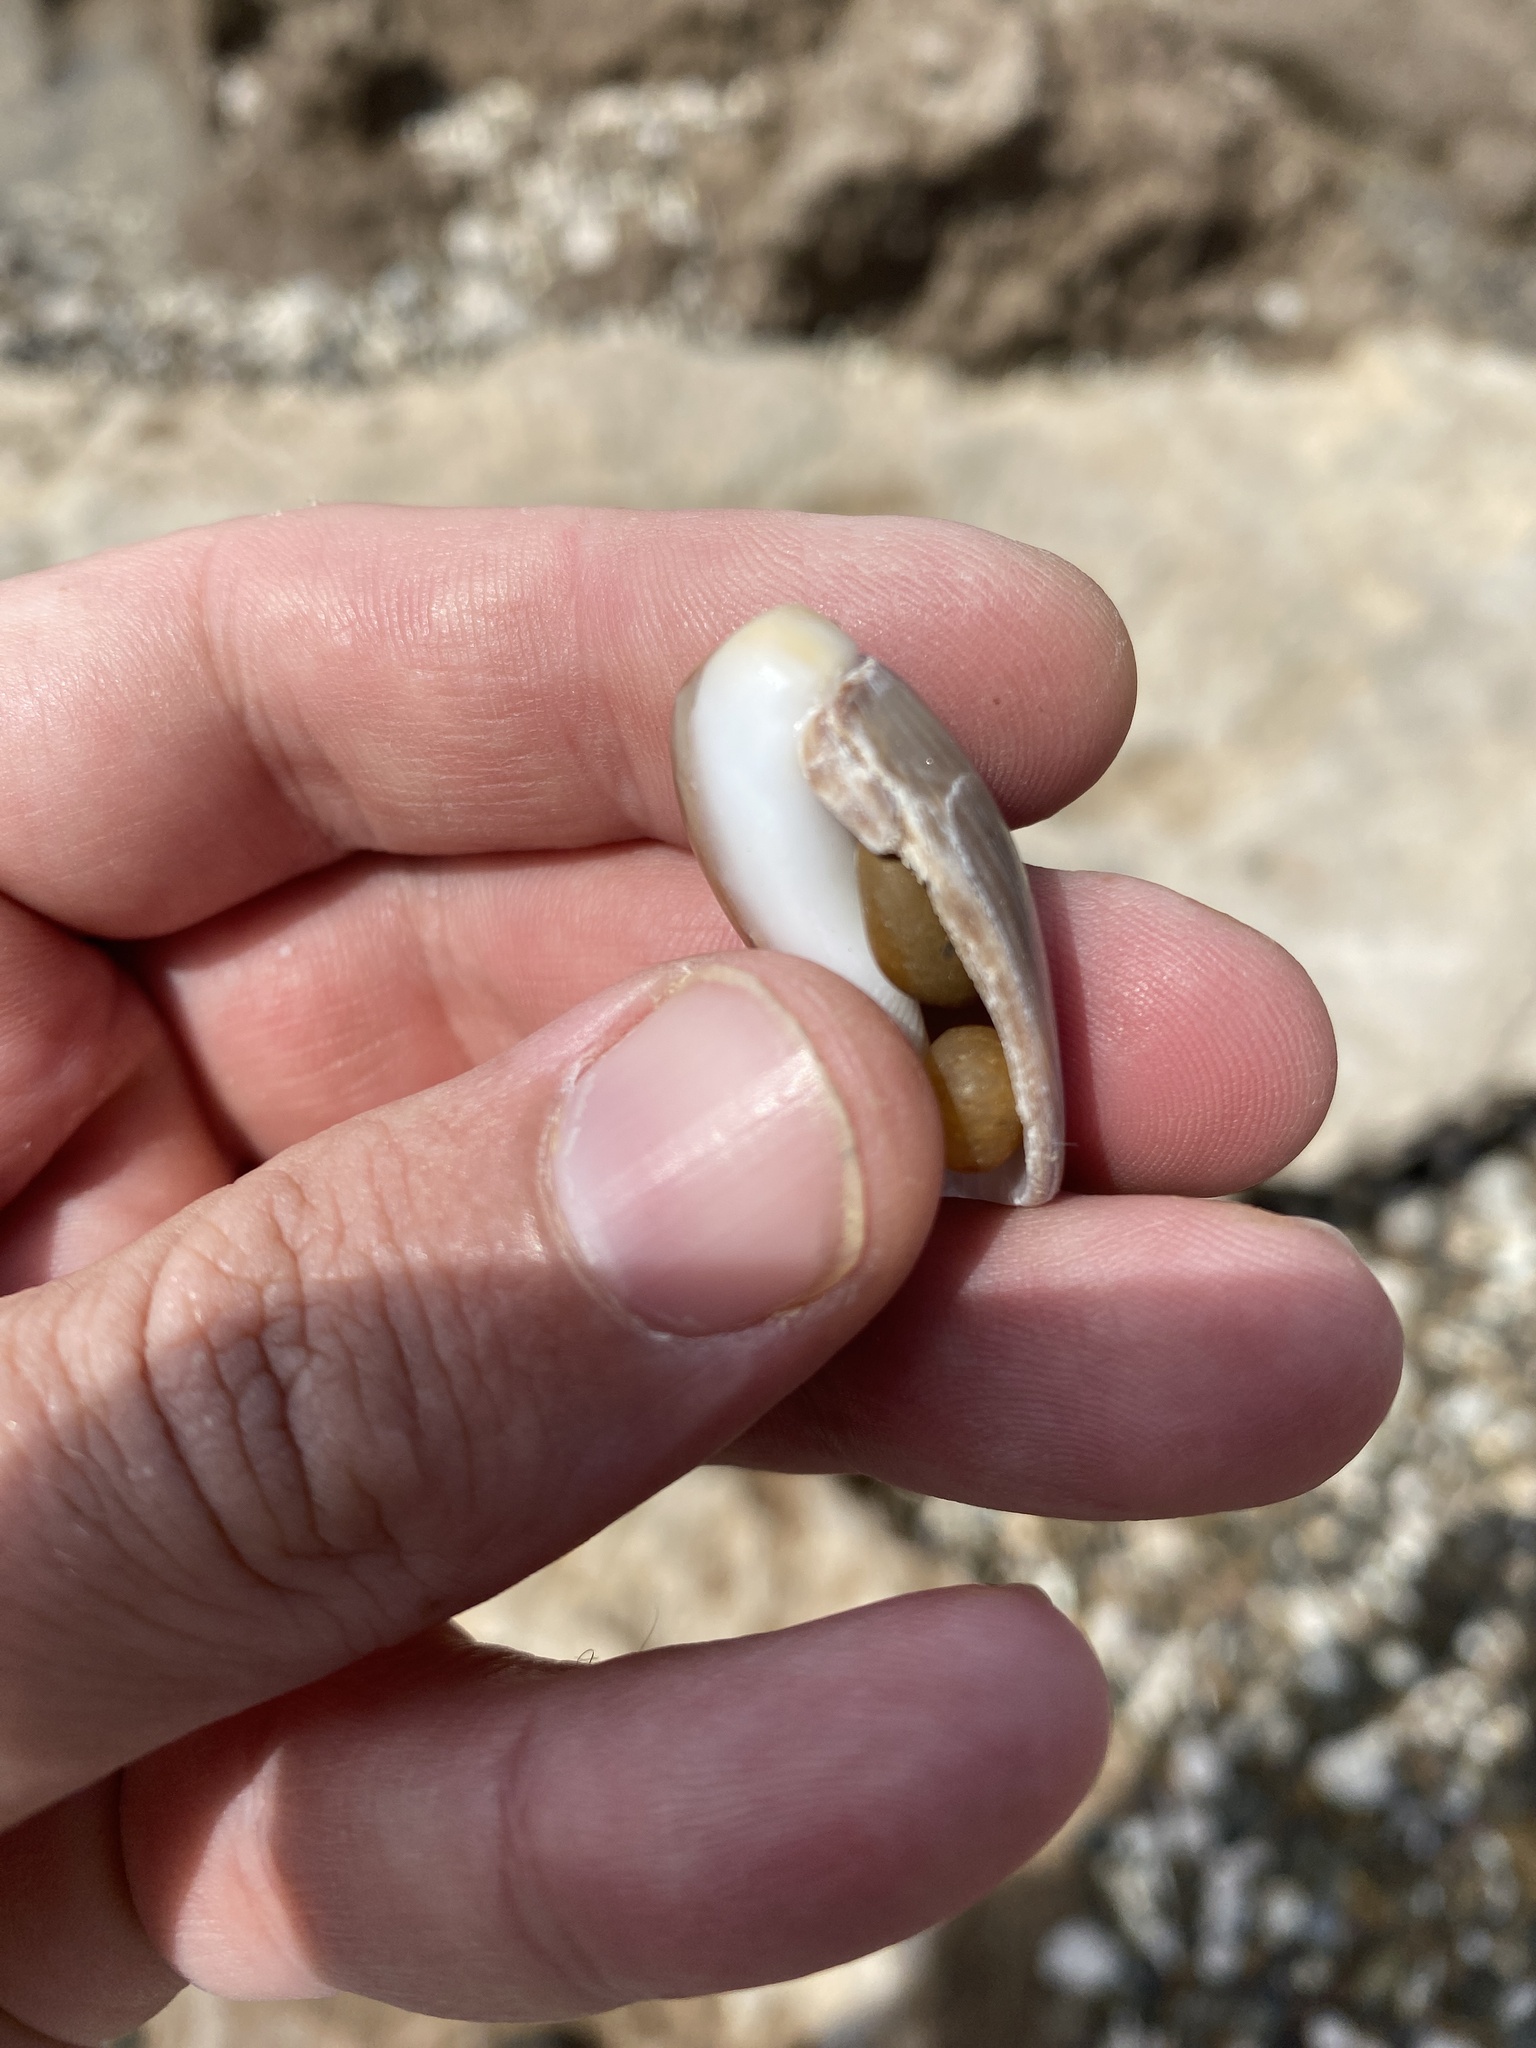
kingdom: Animalia
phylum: Mollusca
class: Gastropoda
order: Neogastropoda
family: Olividae
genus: Olivancillaria
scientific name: Olivancillaria carcellesi
